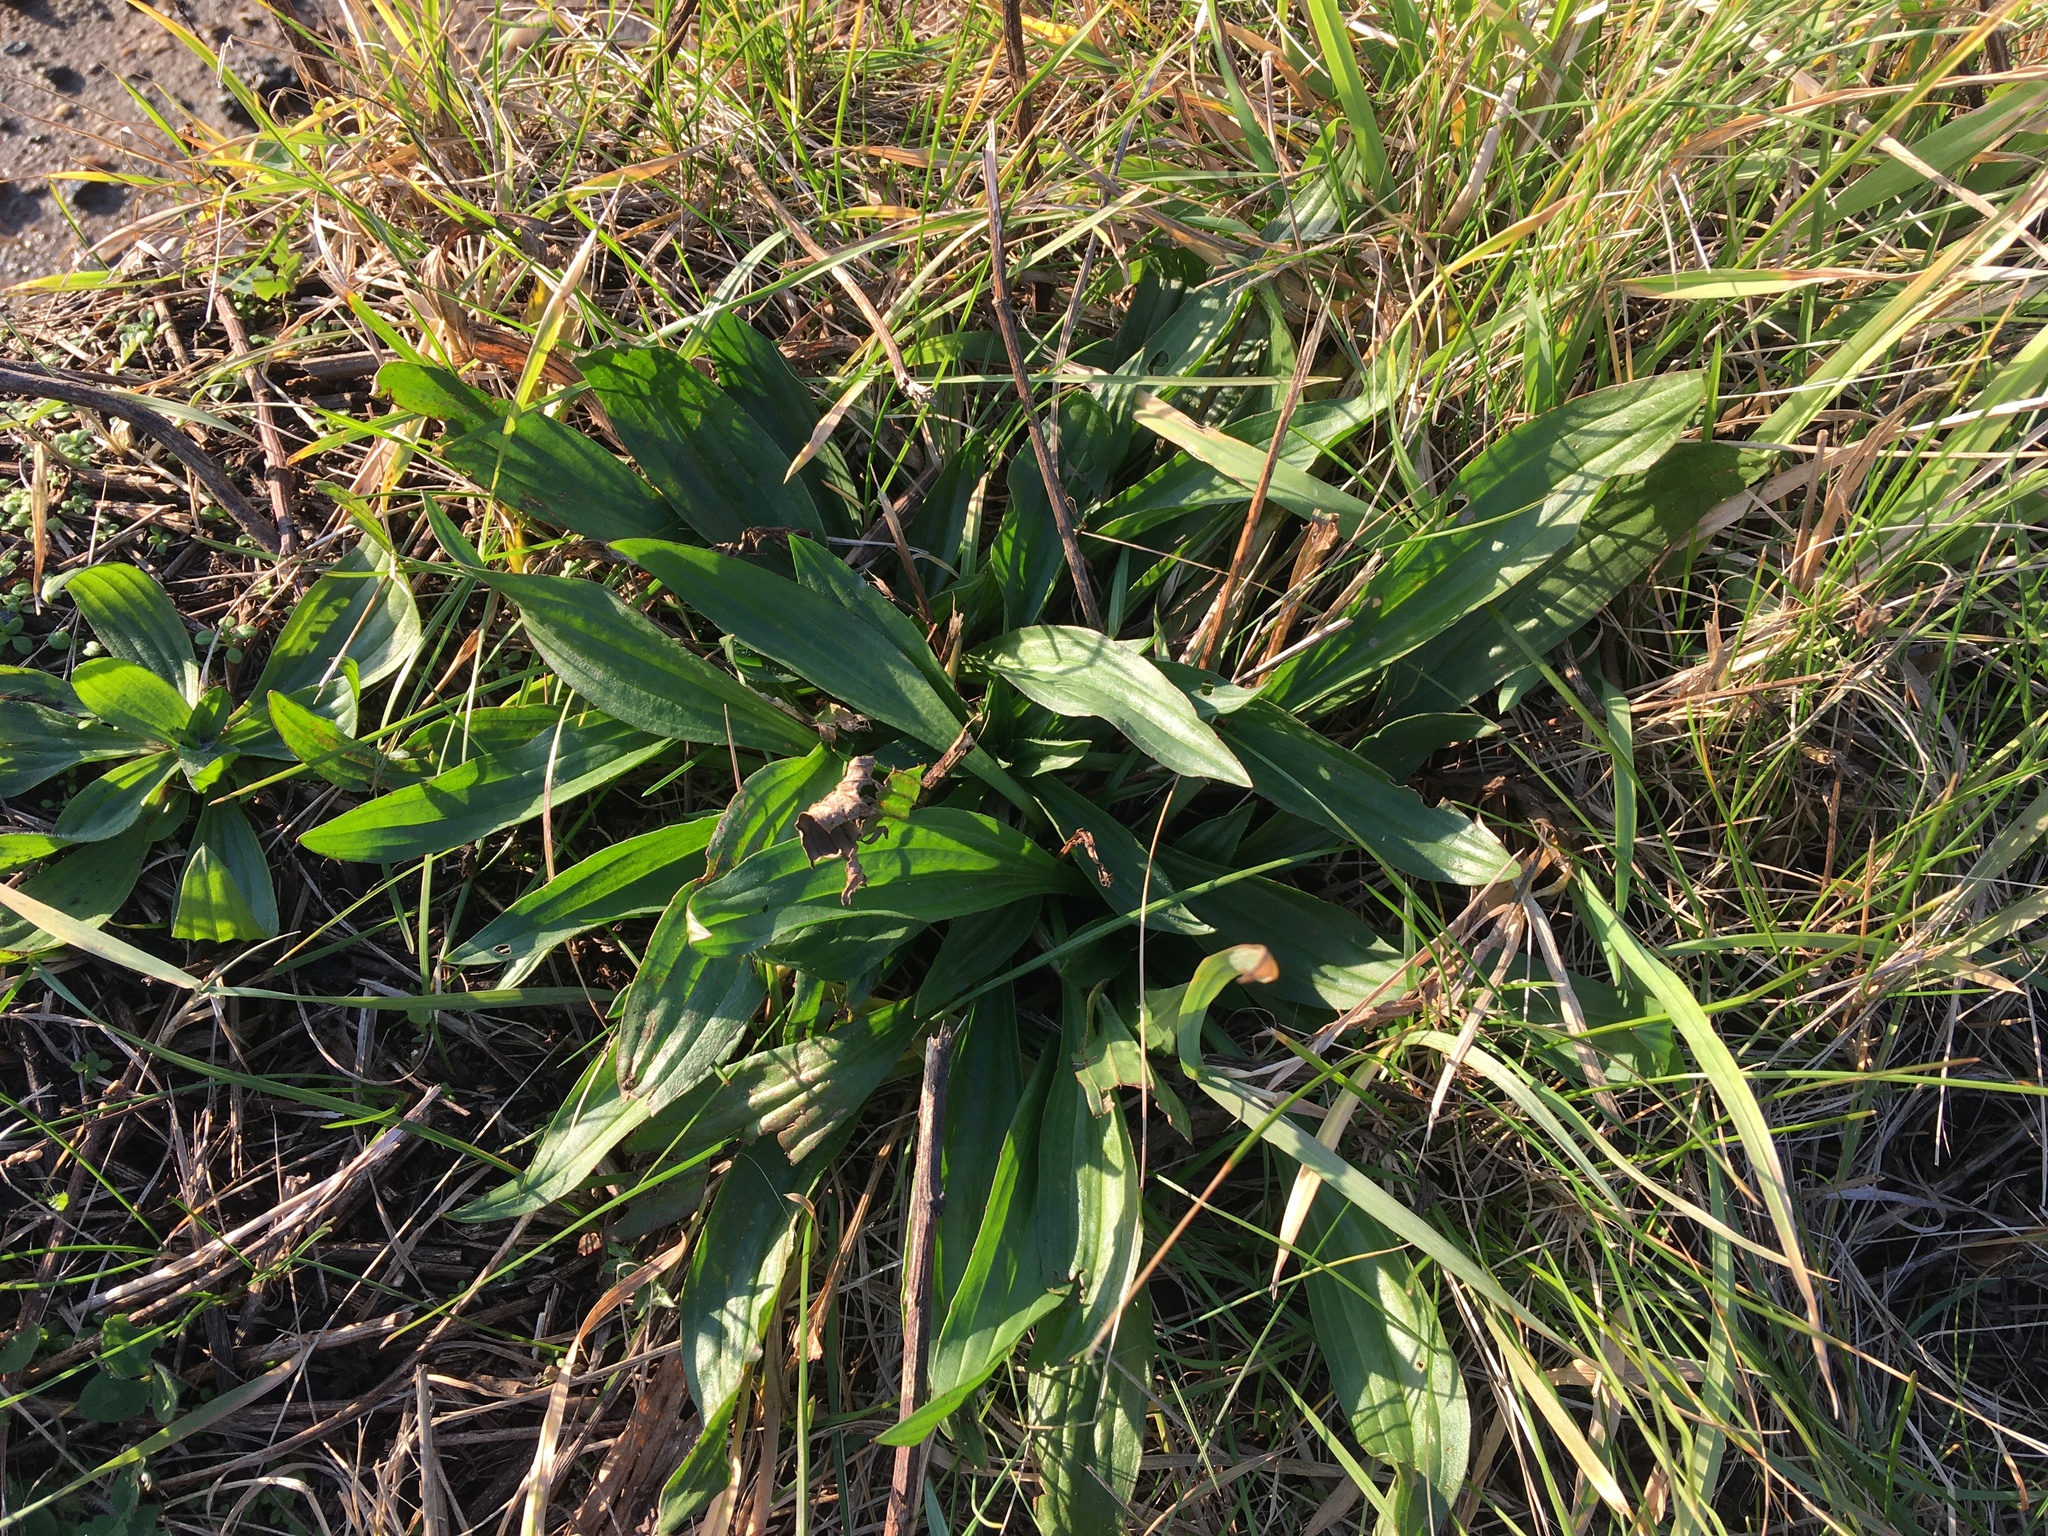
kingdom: Plantae
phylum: Tracheophyta
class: Magnoliopsida
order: Lamiales
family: Plantaginaceae
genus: Plantago
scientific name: Plantago lanceolata
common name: Ribwort plantain
